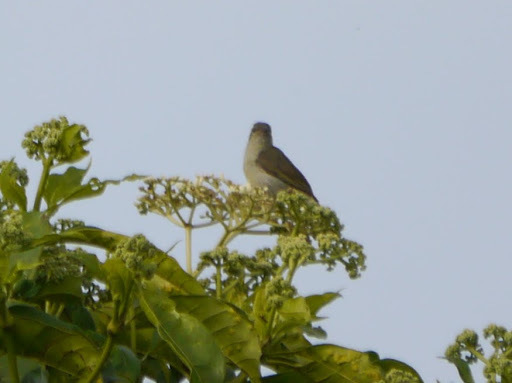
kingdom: Animalia
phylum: Chordata
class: Aves
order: Passeriformes
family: Nectariniidae
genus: Cyanomitra
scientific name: Cyanomitra olivacea
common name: Olive sunbird
